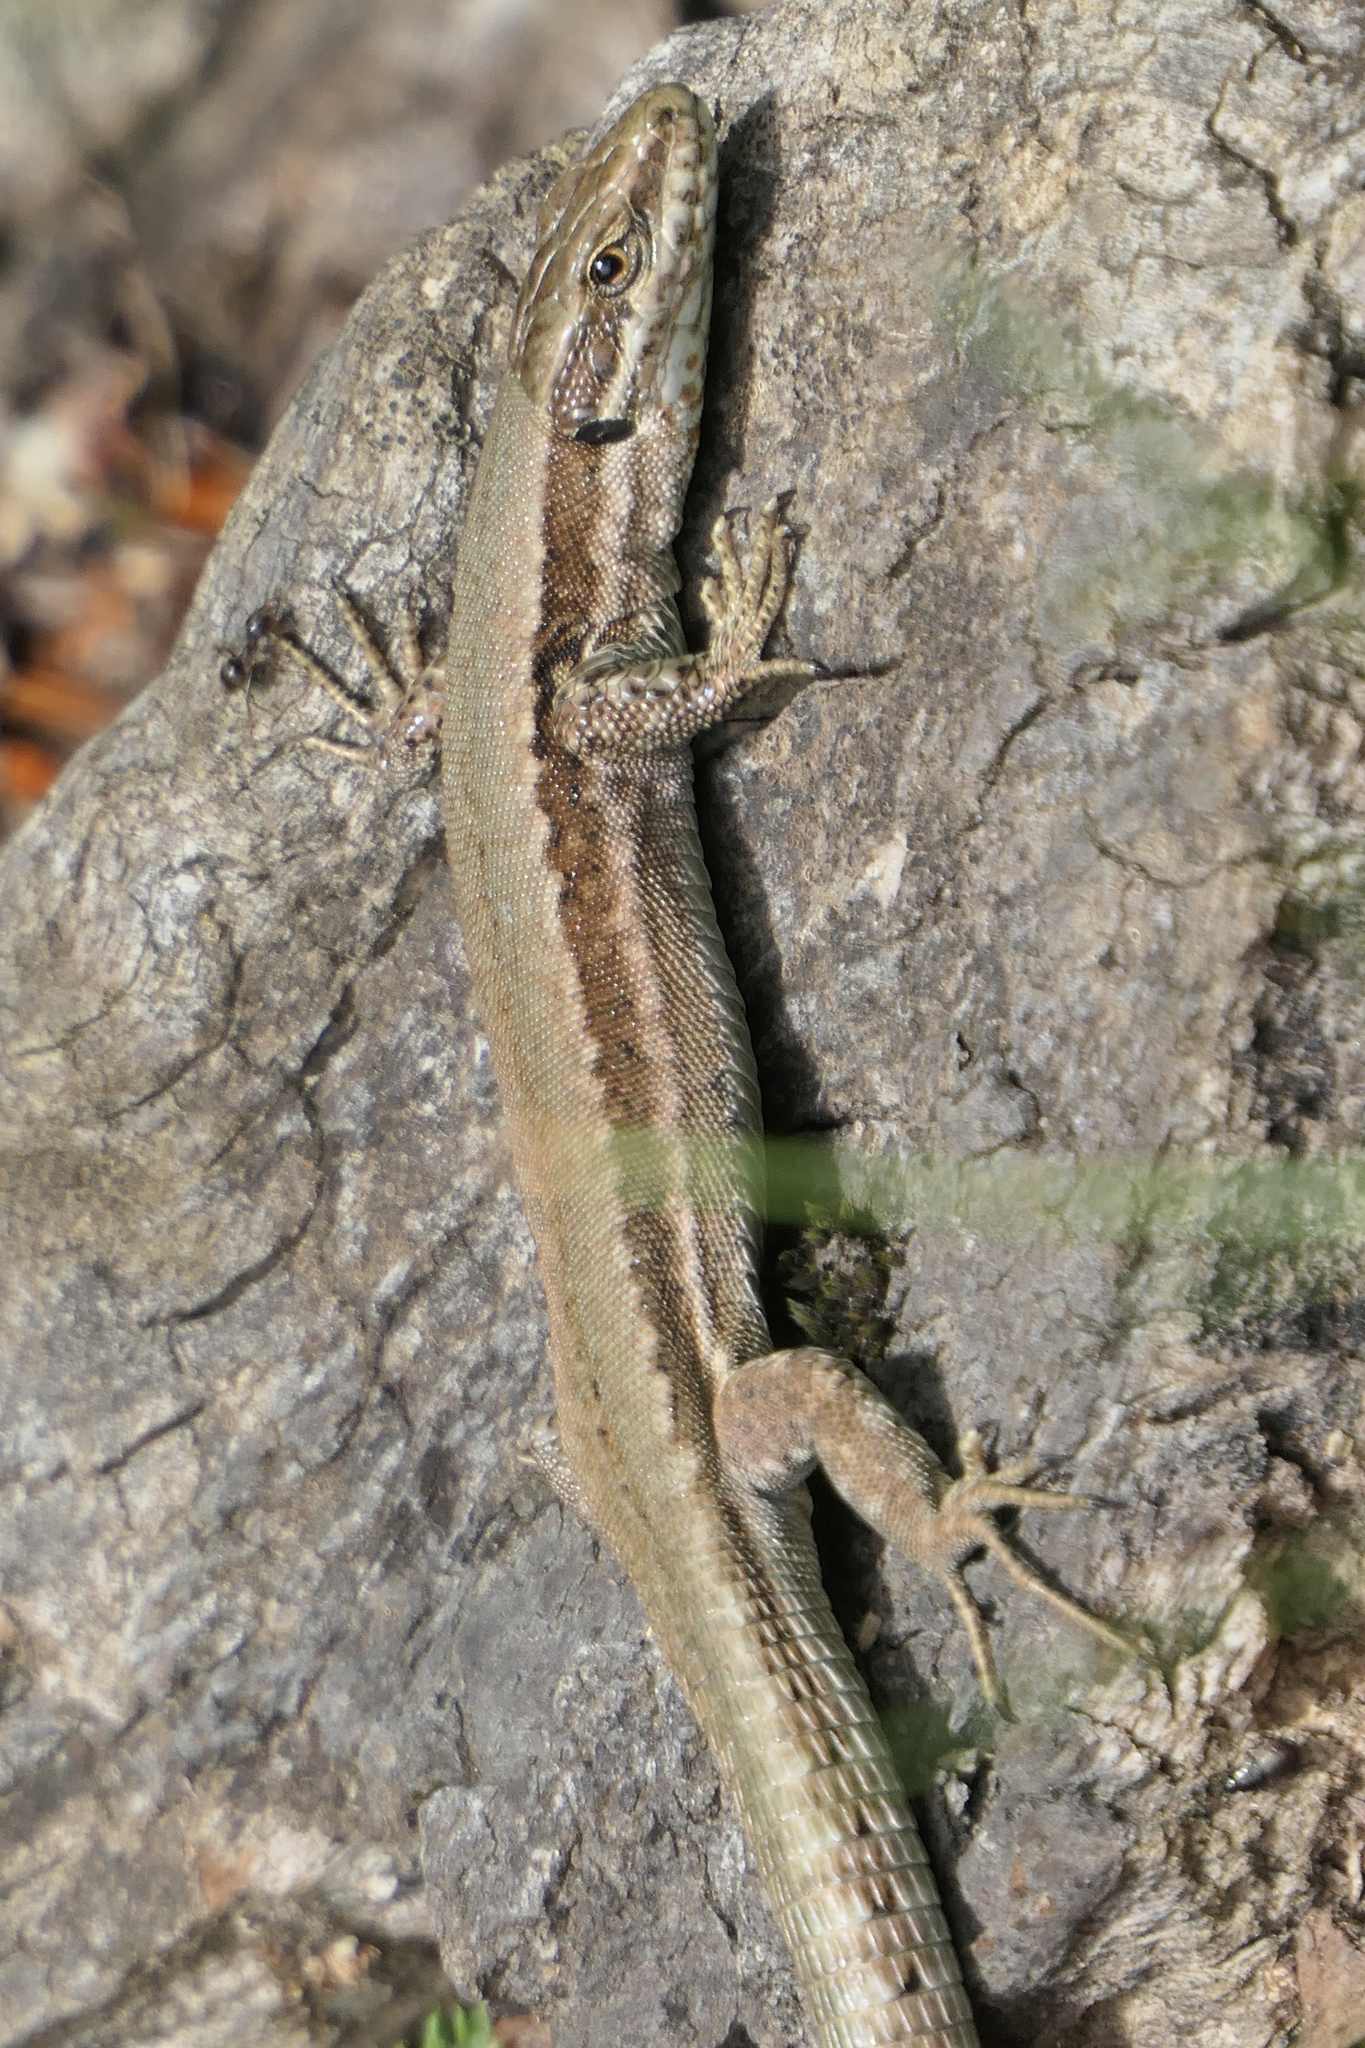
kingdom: Animalia
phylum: Chordata
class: Squamata
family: Lacertidae
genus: Podarcis
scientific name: Podarcis muralis
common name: Common wall lizard
